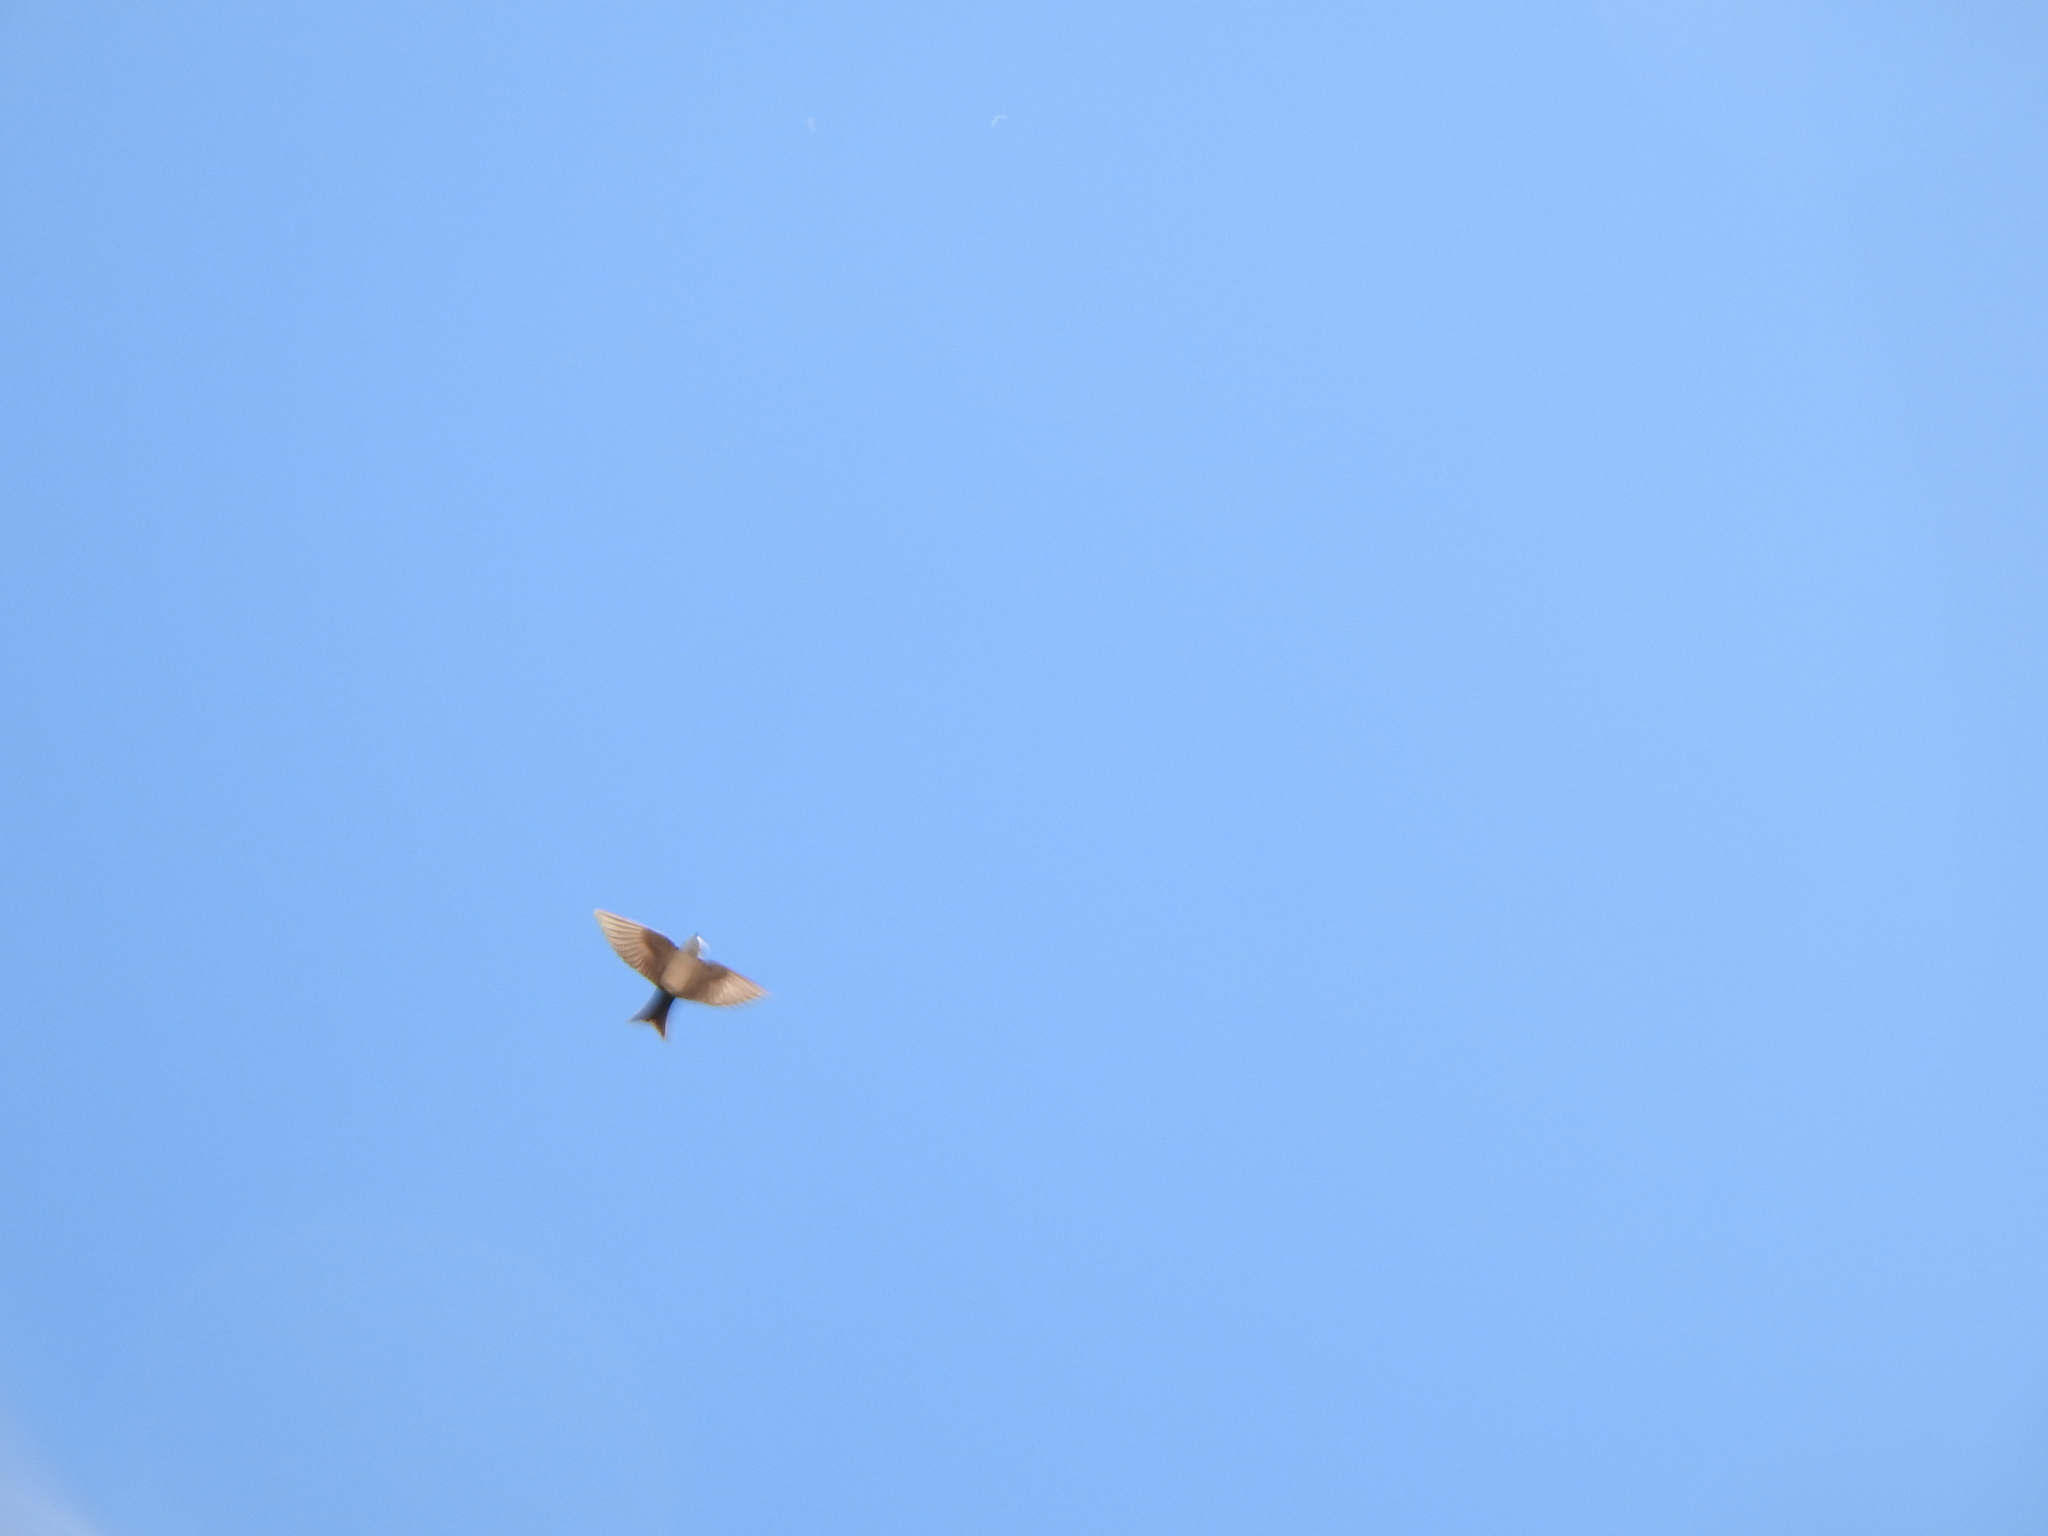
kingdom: Animalia
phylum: Chordata
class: Aves
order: Passeriformes
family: Hirundinidae
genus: Notiochelidon
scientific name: Notiochelidon cyanoleuca
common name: Blue-and-white swallow
